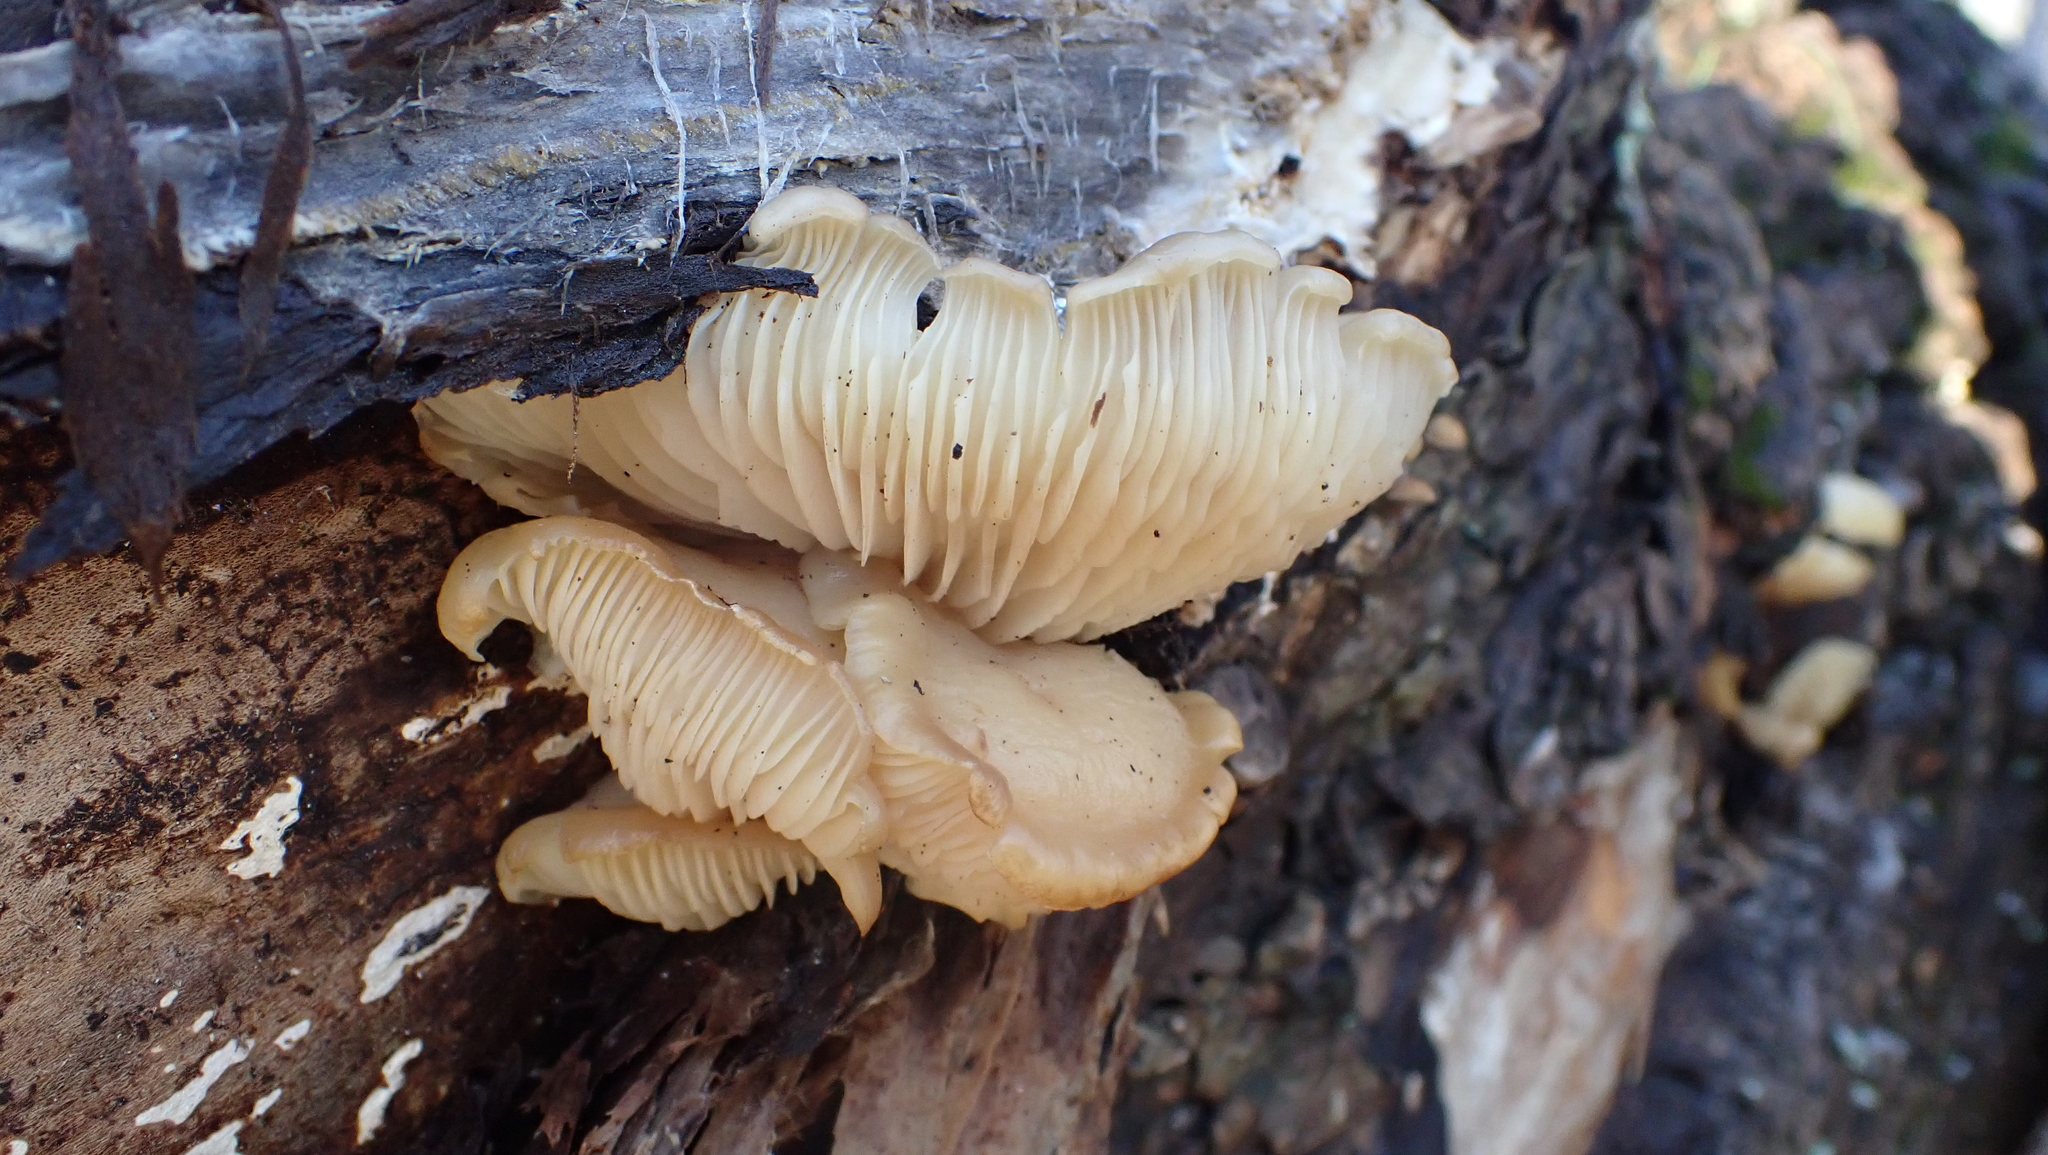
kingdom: Fungi
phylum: Basidiomycota
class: Agaricomycetes
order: Agaricales
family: Pleurotaceae
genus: Pleurotus
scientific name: Pleurotus ostreatus
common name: Oyster mushroom
